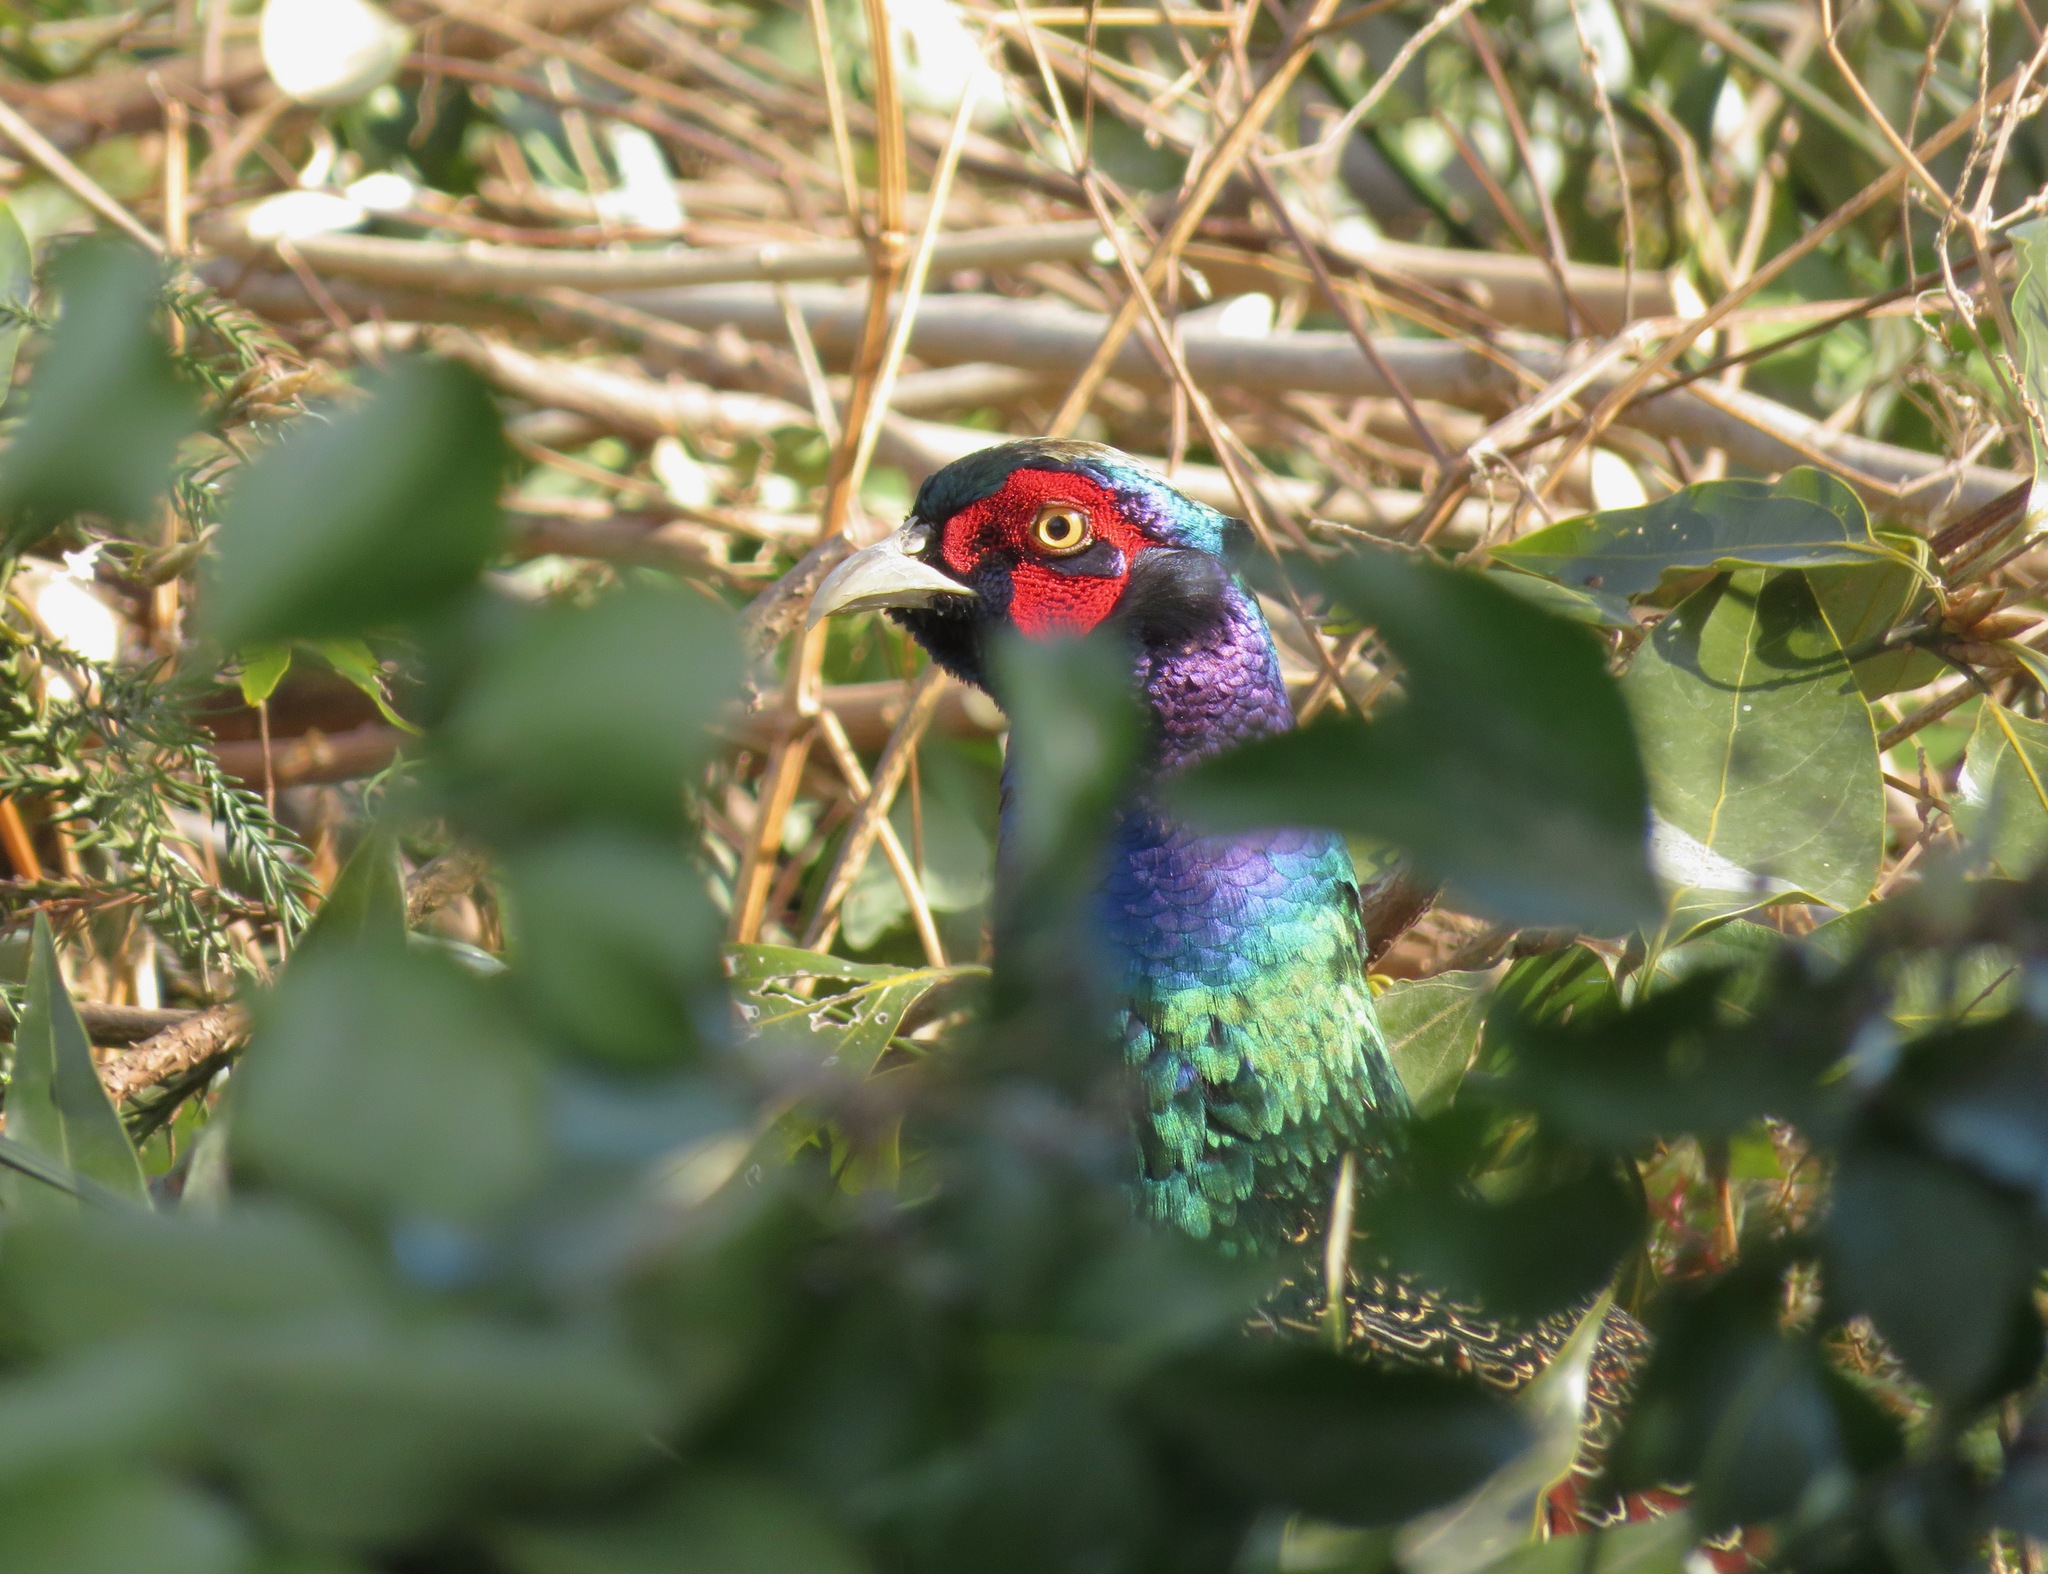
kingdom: Animalia
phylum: Chordata
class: Aves
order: Galliformes
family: Phasianidae
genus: Phasianus
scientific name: Phasianus versicolor
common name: Green pheasant
